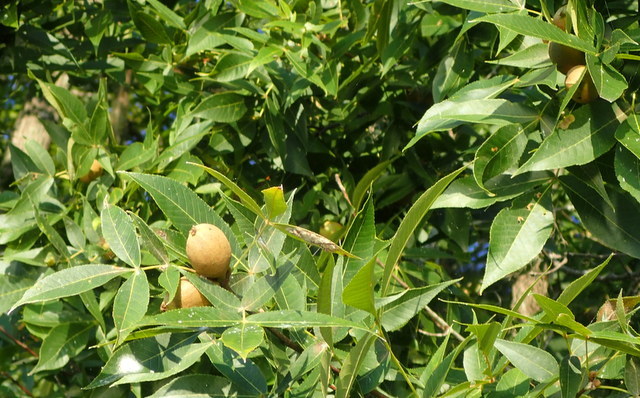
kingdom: Plantae
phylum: Tracheophyta
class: Magnoliopsida
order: Fagales
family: Juglandaceae
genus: Carya
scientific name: Carya glabra
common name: Pignut hickory
